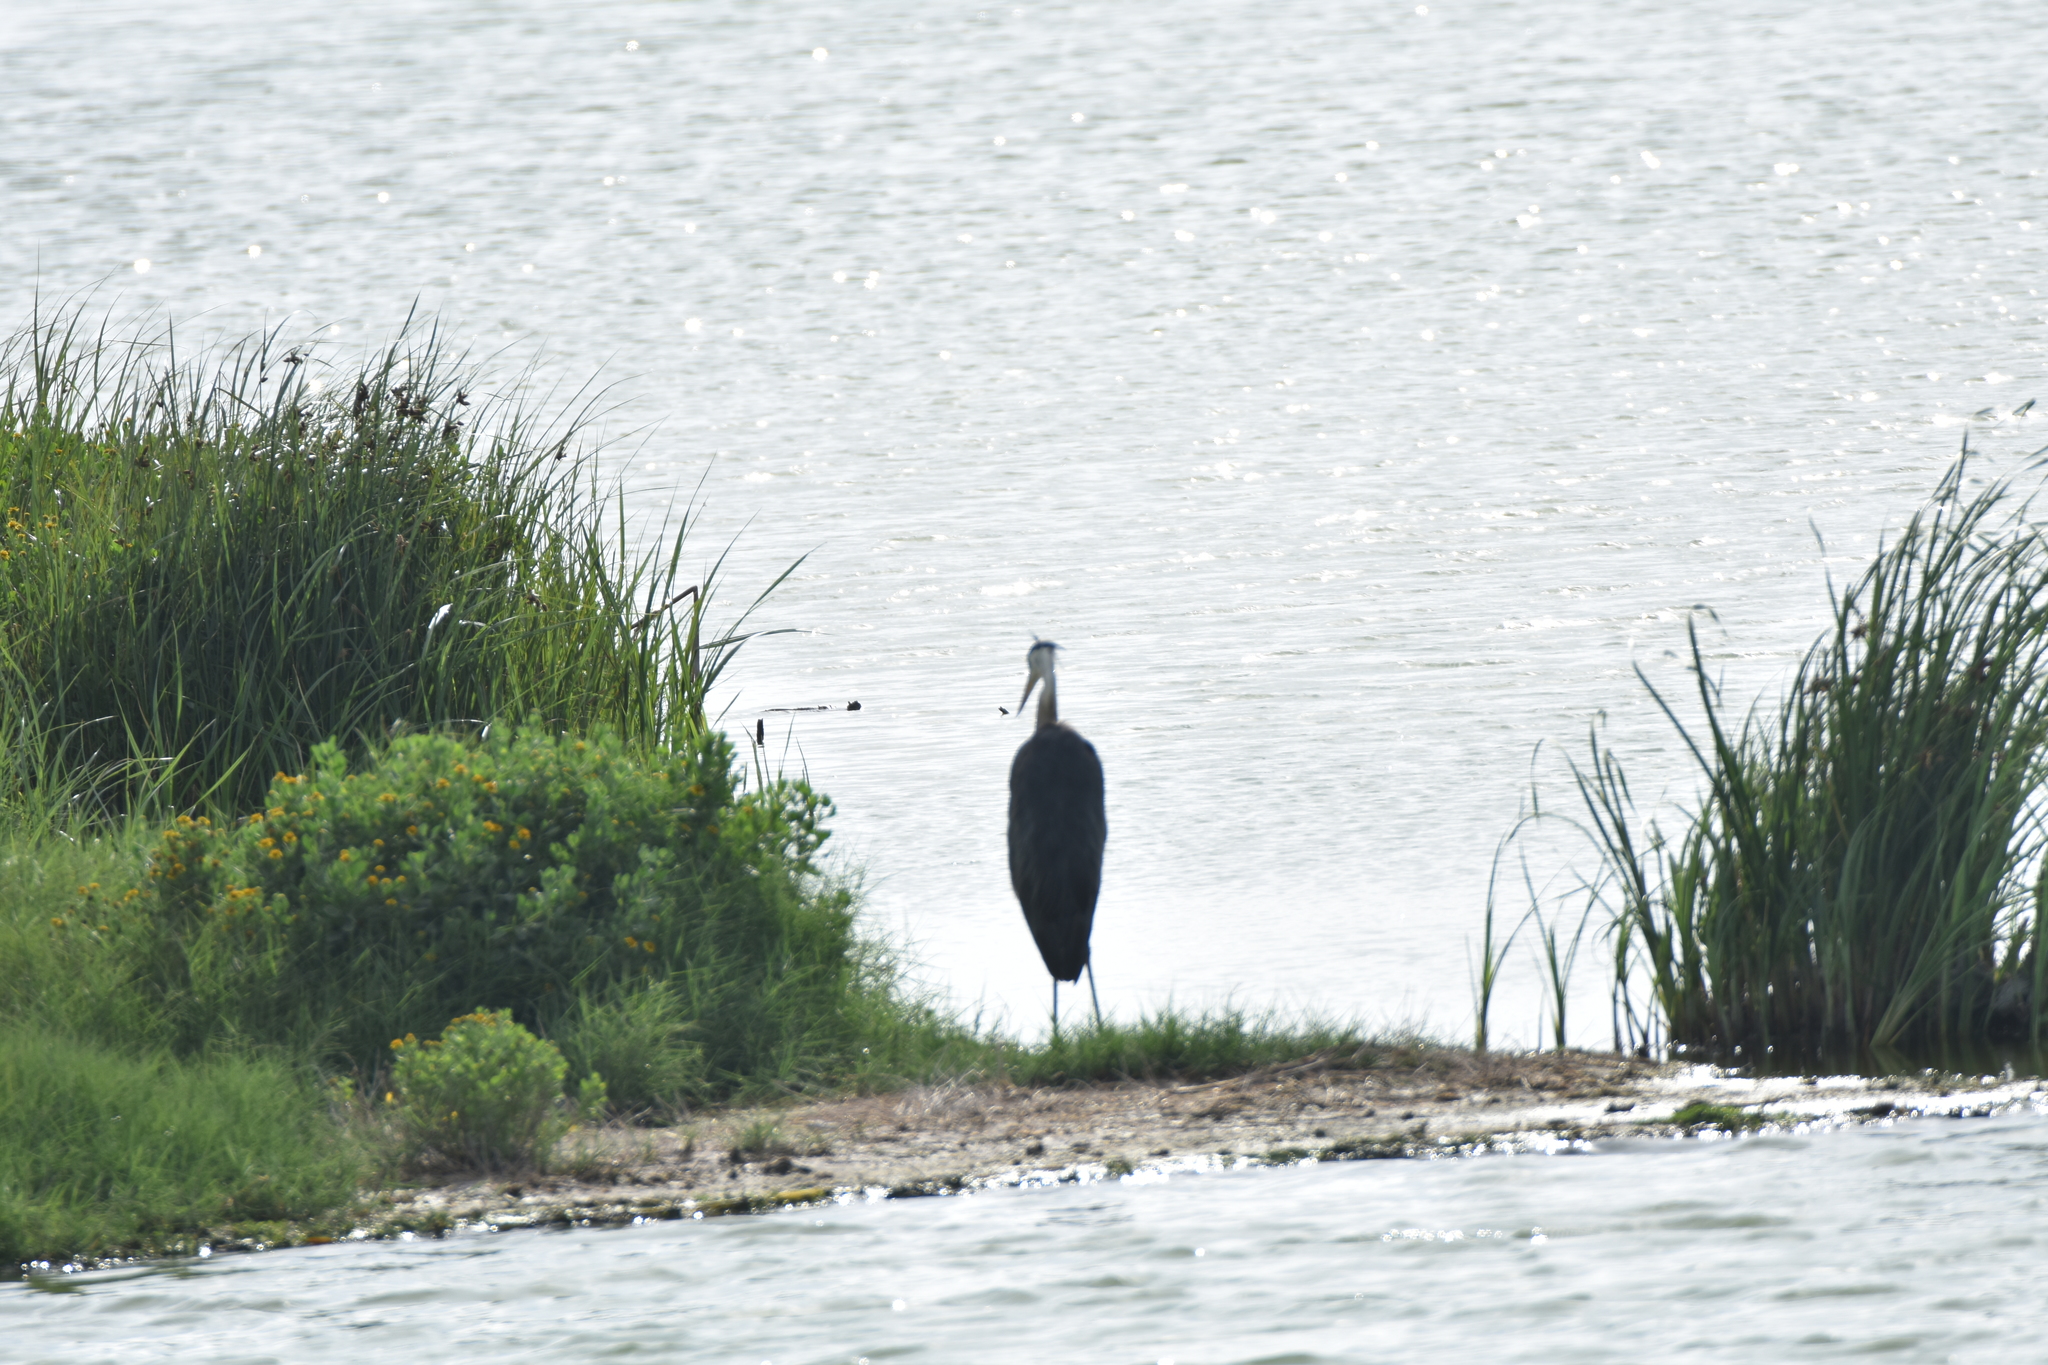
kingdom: Animalia
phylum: Chordata
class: Aves
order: Pelecaniformes
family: Ardeidae
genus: Ardea
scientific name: Ardea herodias
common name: Great blue heron
